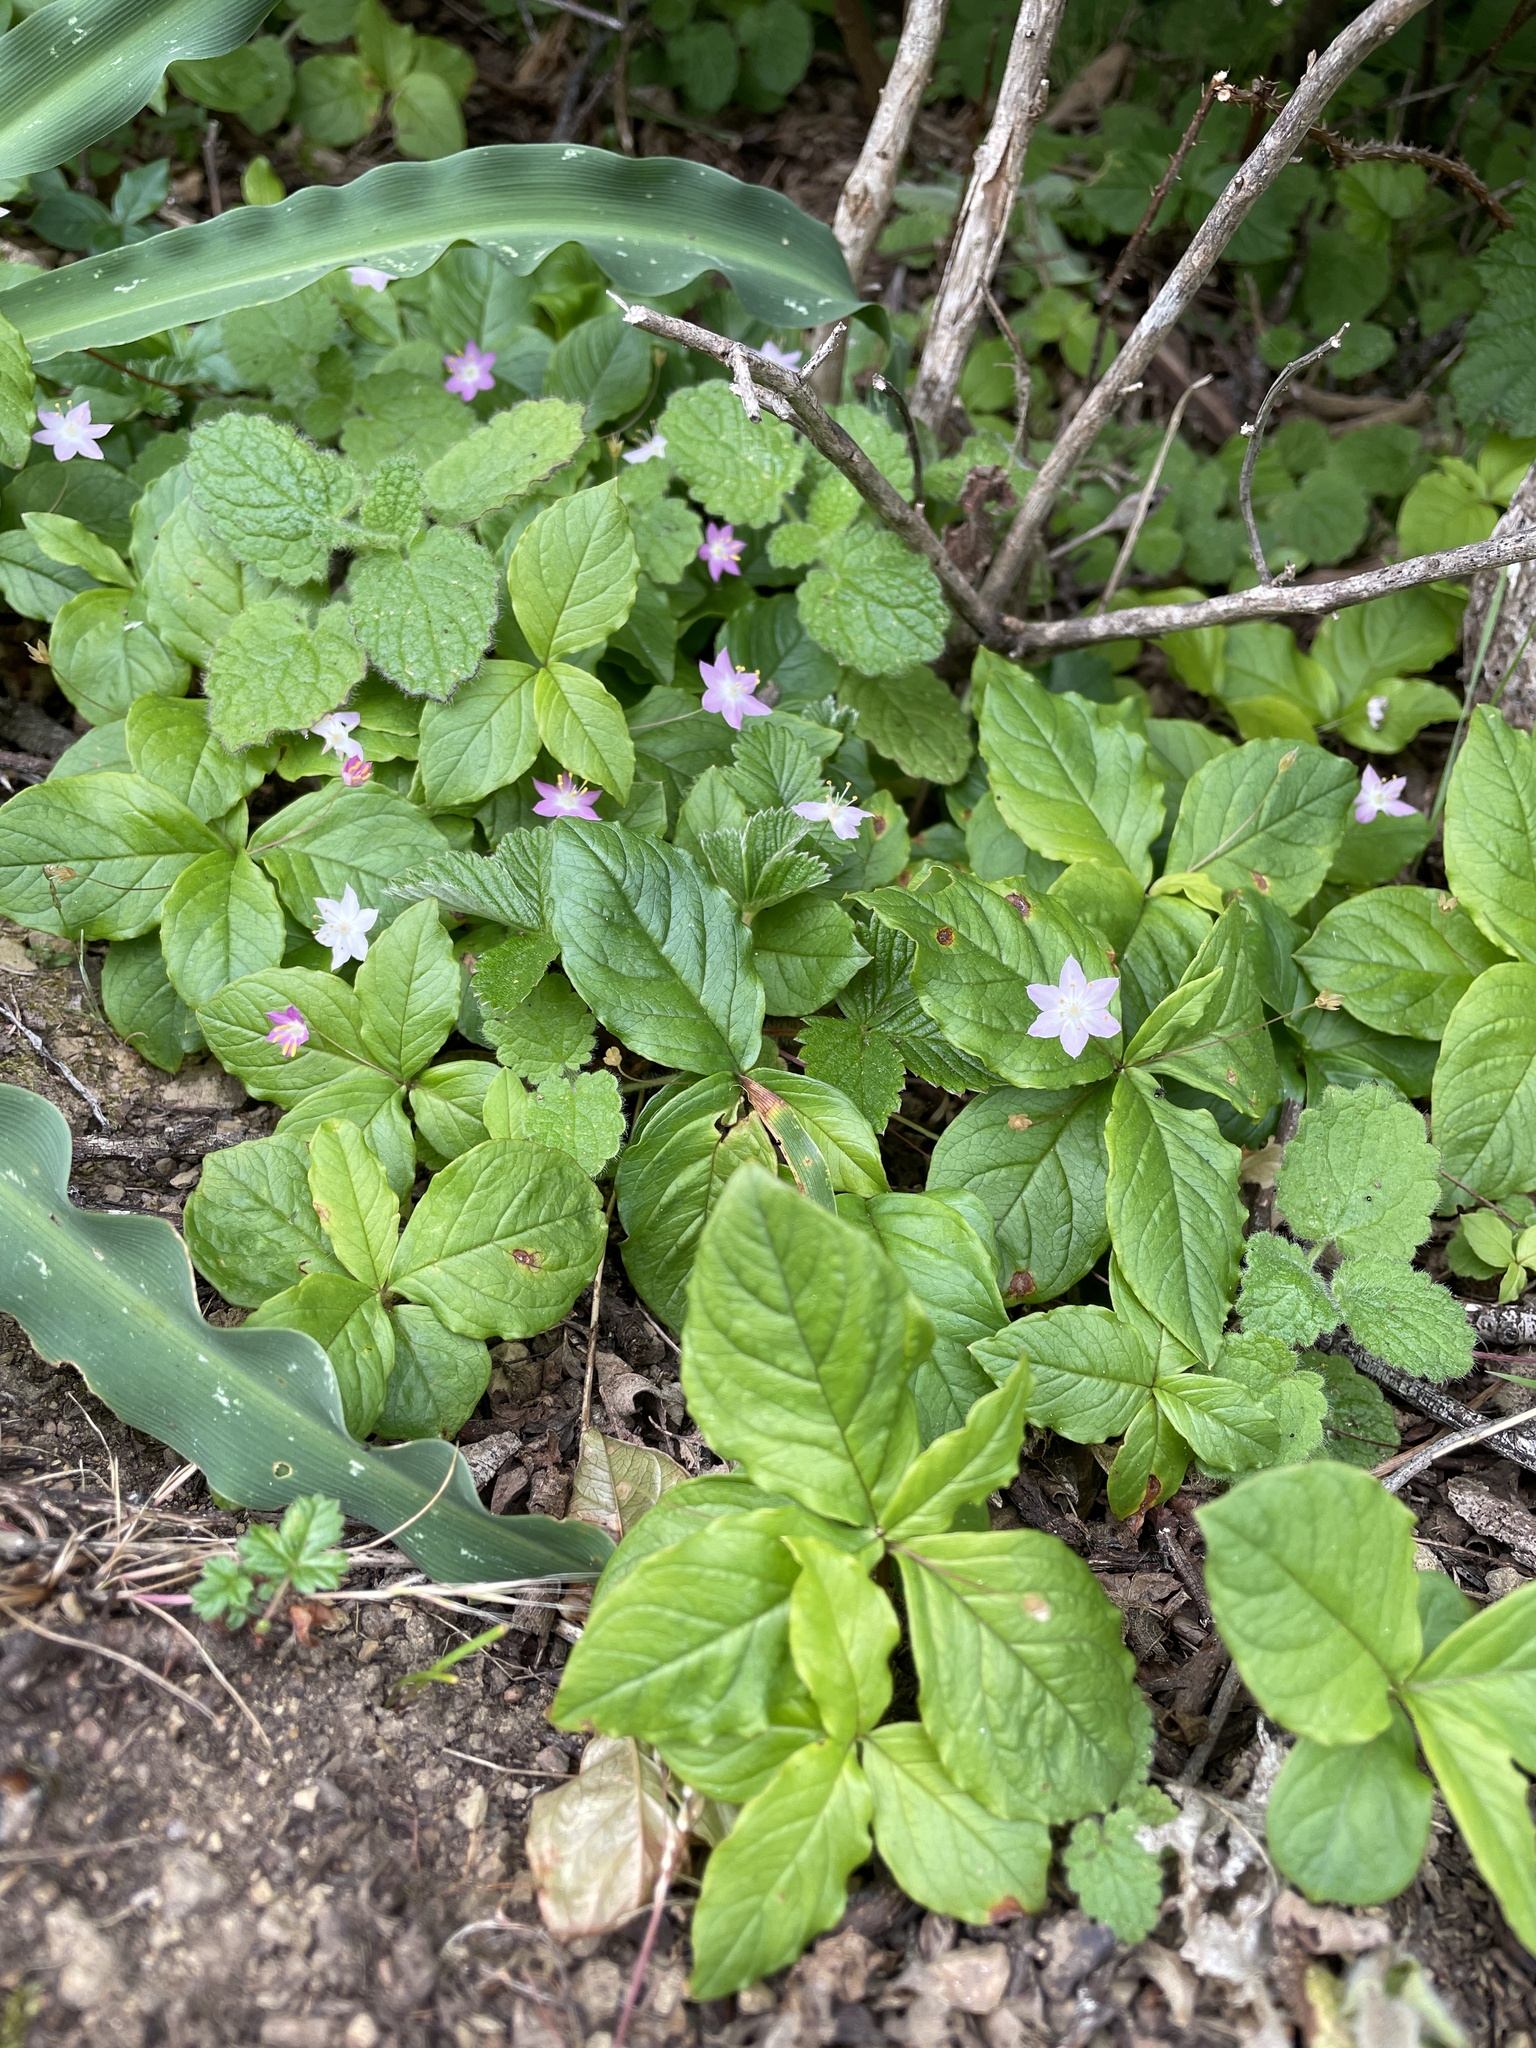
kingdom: Plantae
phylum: Tracheophyta
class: Magnoliopsida
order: Ericales
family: Primulaceae
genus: Lysimachia
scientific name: Lysimachia latifolia
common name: Pacific starflower
